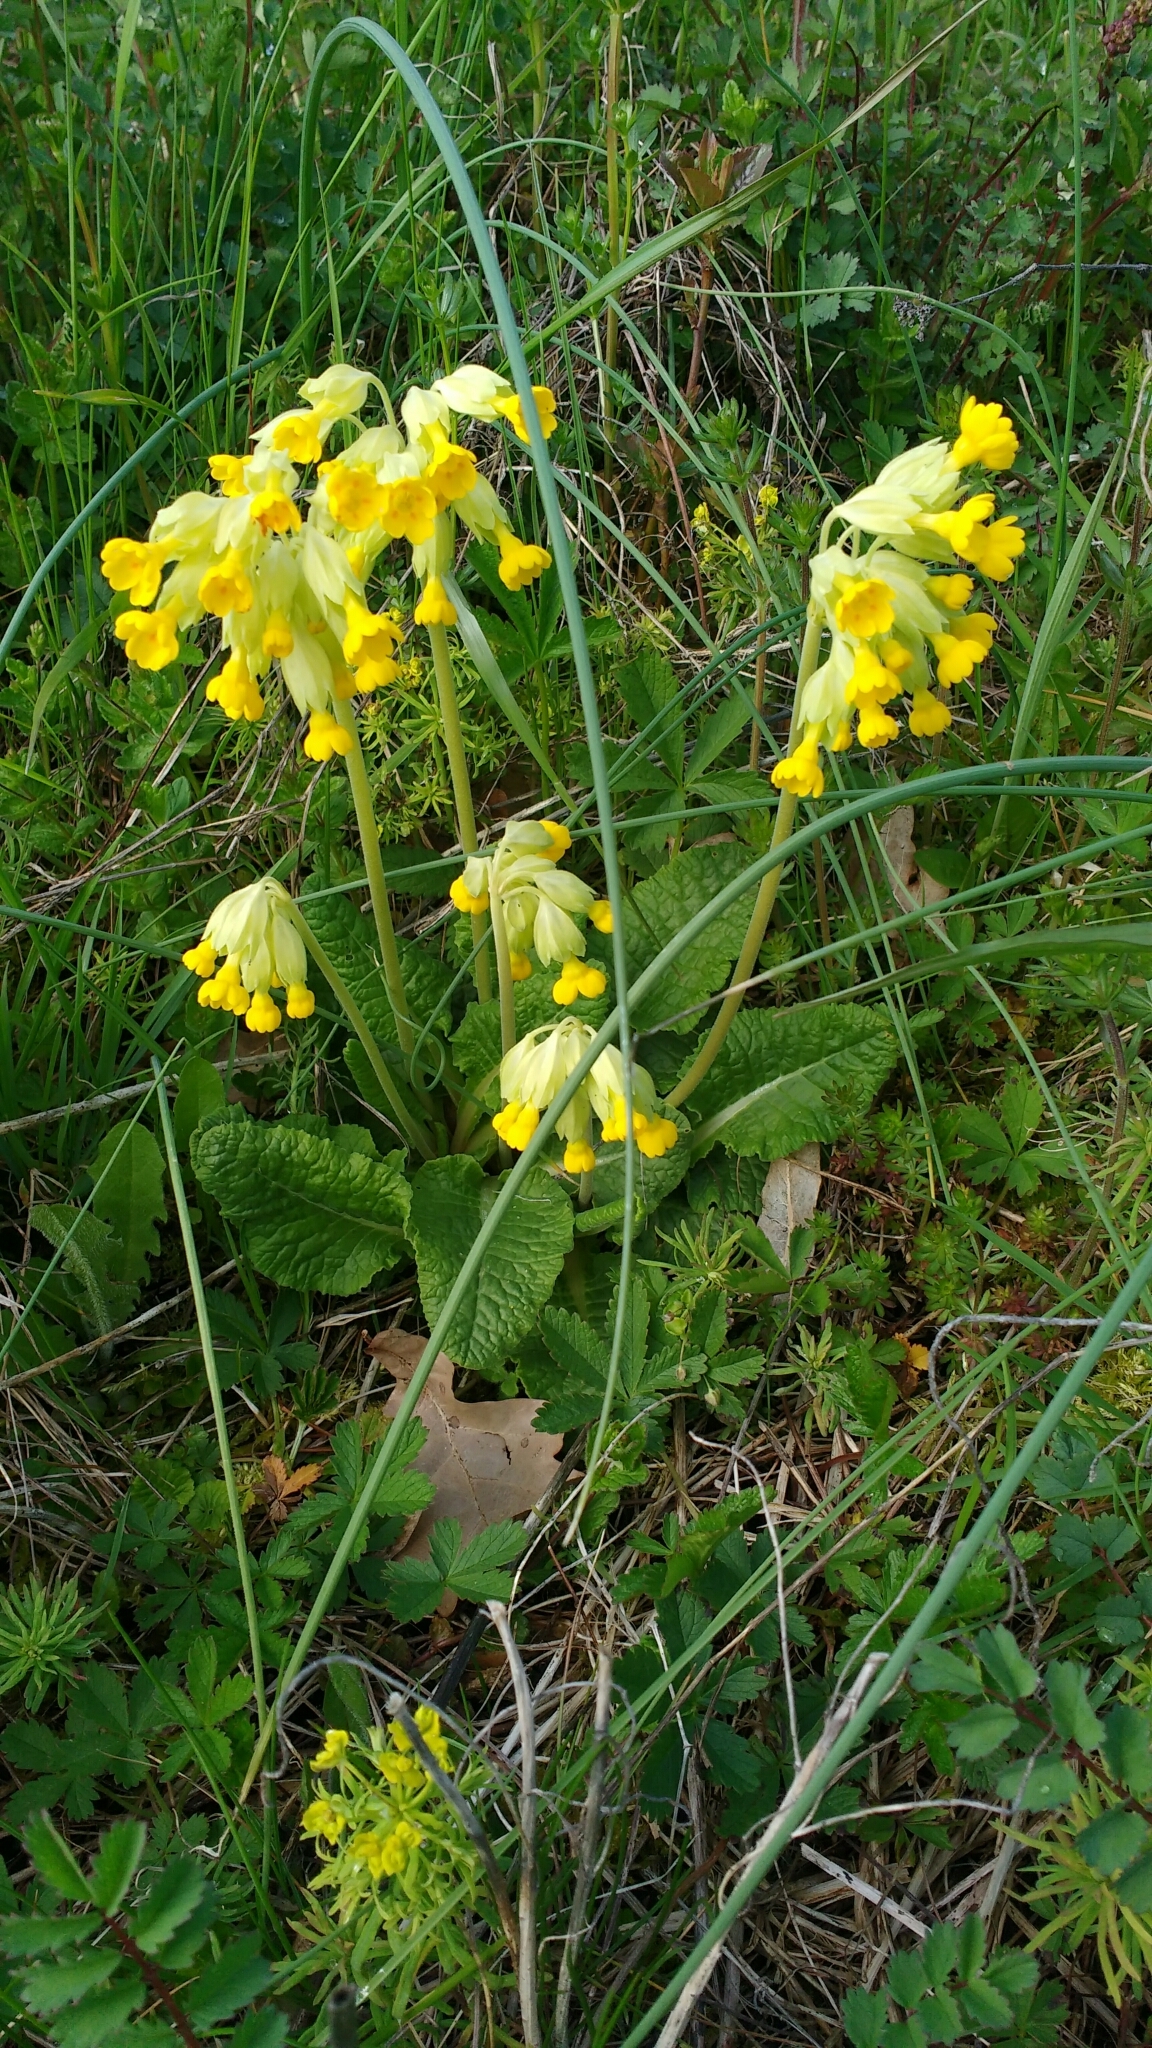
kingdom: Plantae
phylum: Tracheophyta
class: Magnoliopsida
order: Ericales
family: Primulaceae
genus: Primula
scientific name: Primula veris
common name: Cowslip
